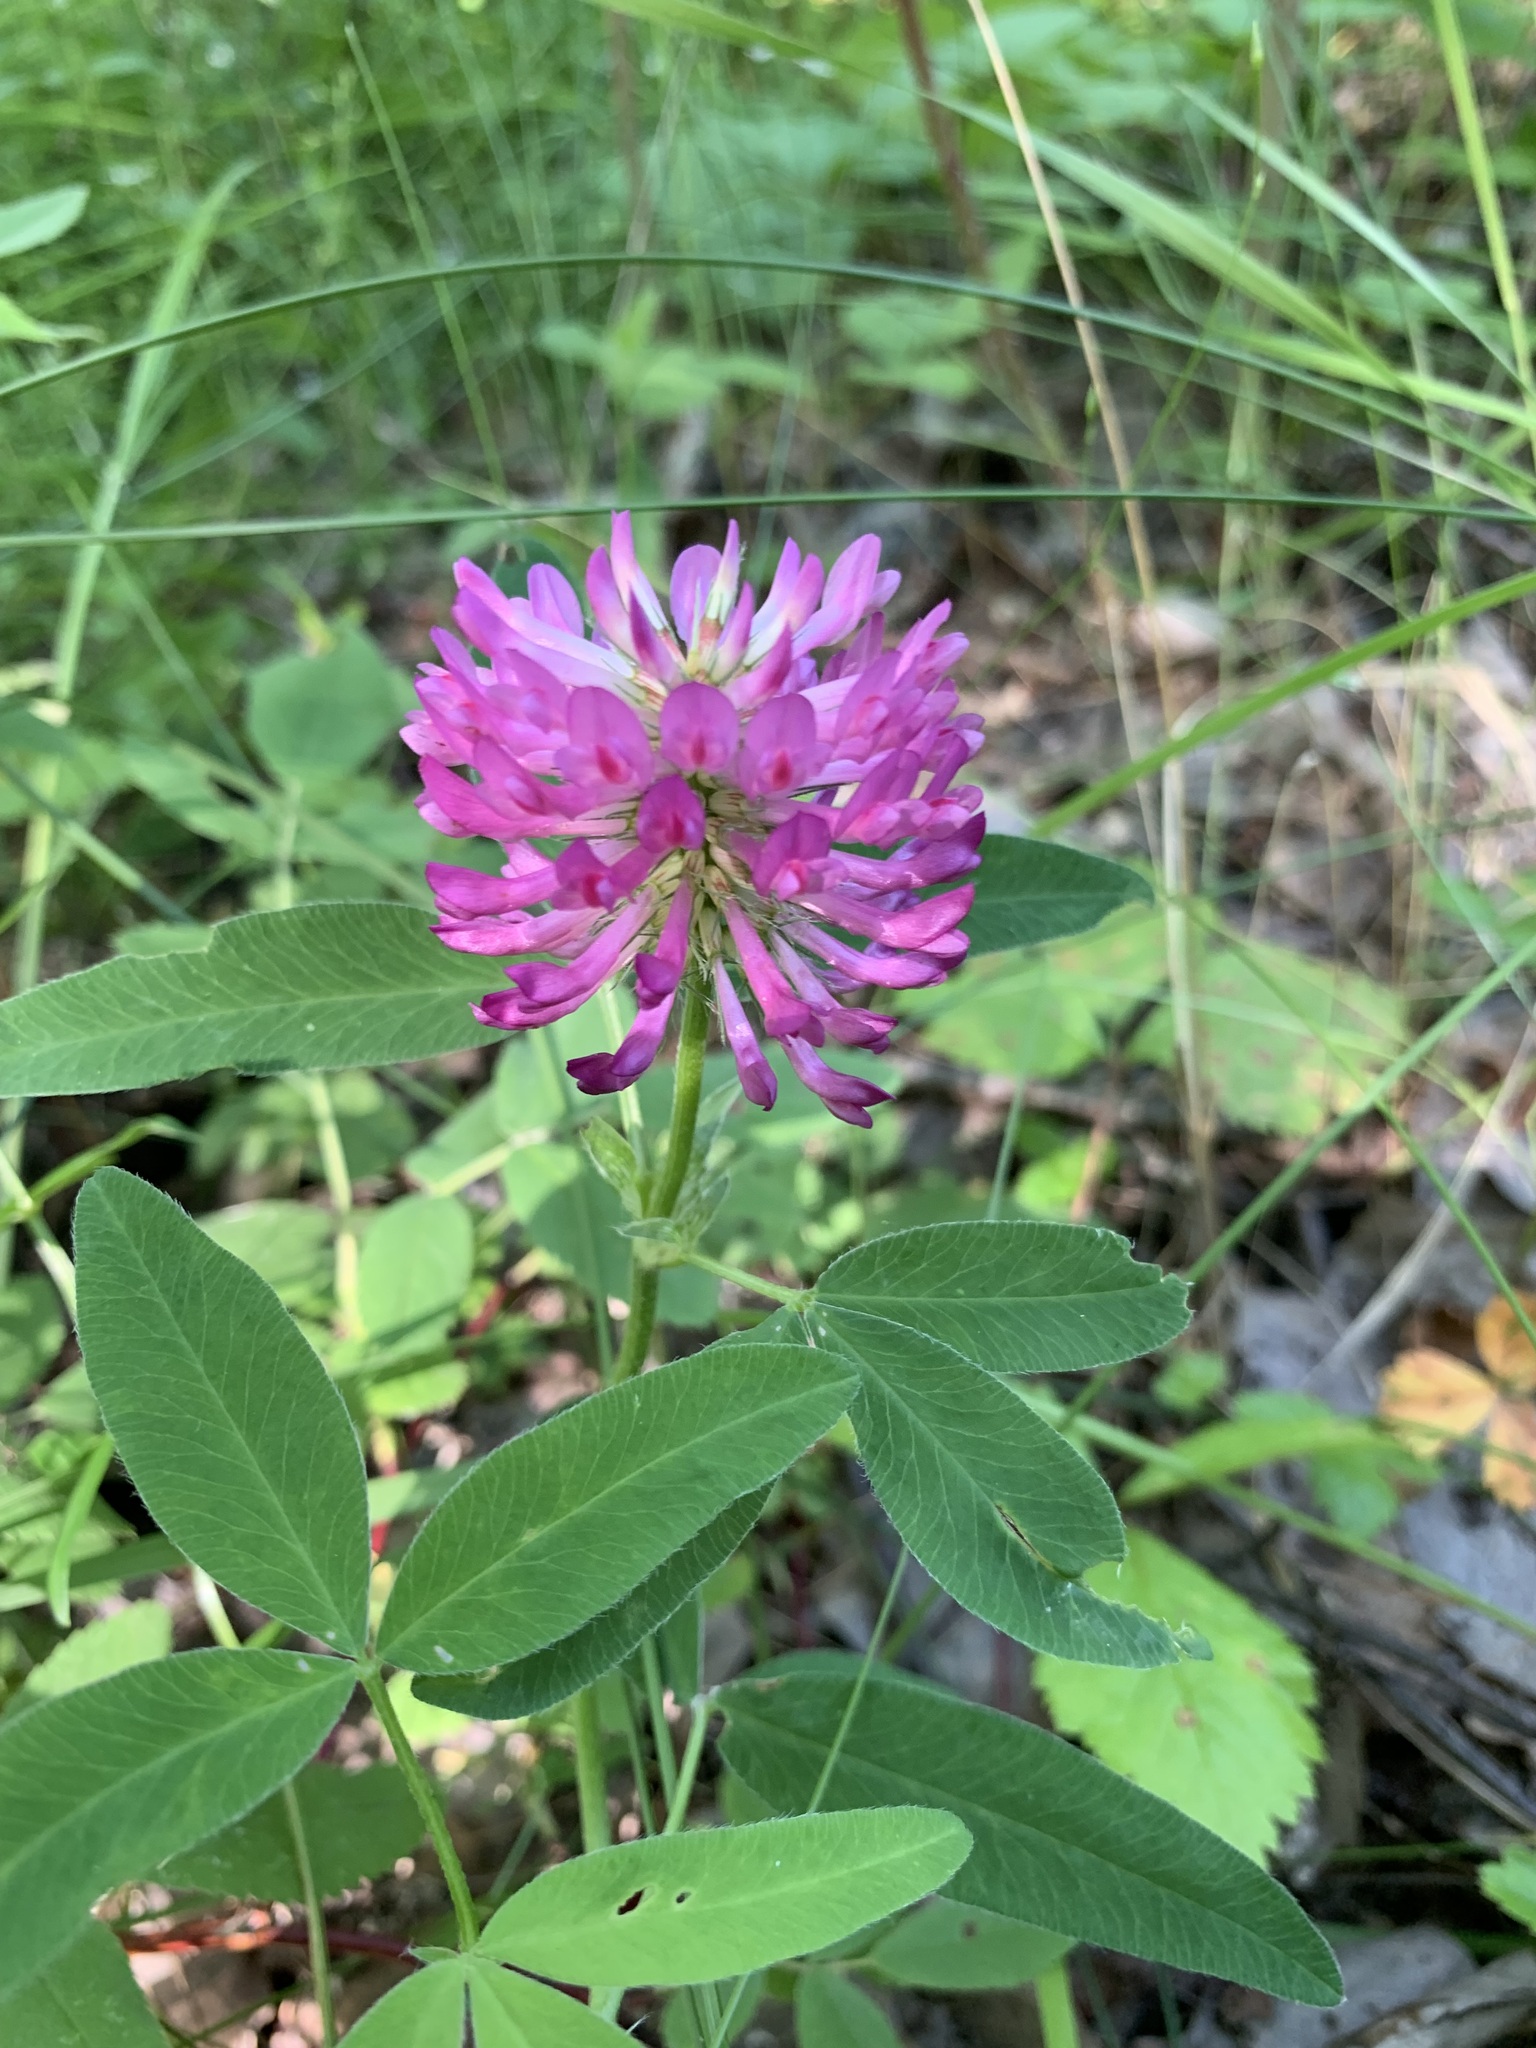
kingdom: Plantae
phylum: Tracheophyta
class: Magnoliopsida
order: Fabales
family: Fabaceae
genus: Trifolium
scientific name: Trifolium medium
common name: Zigzag clover
